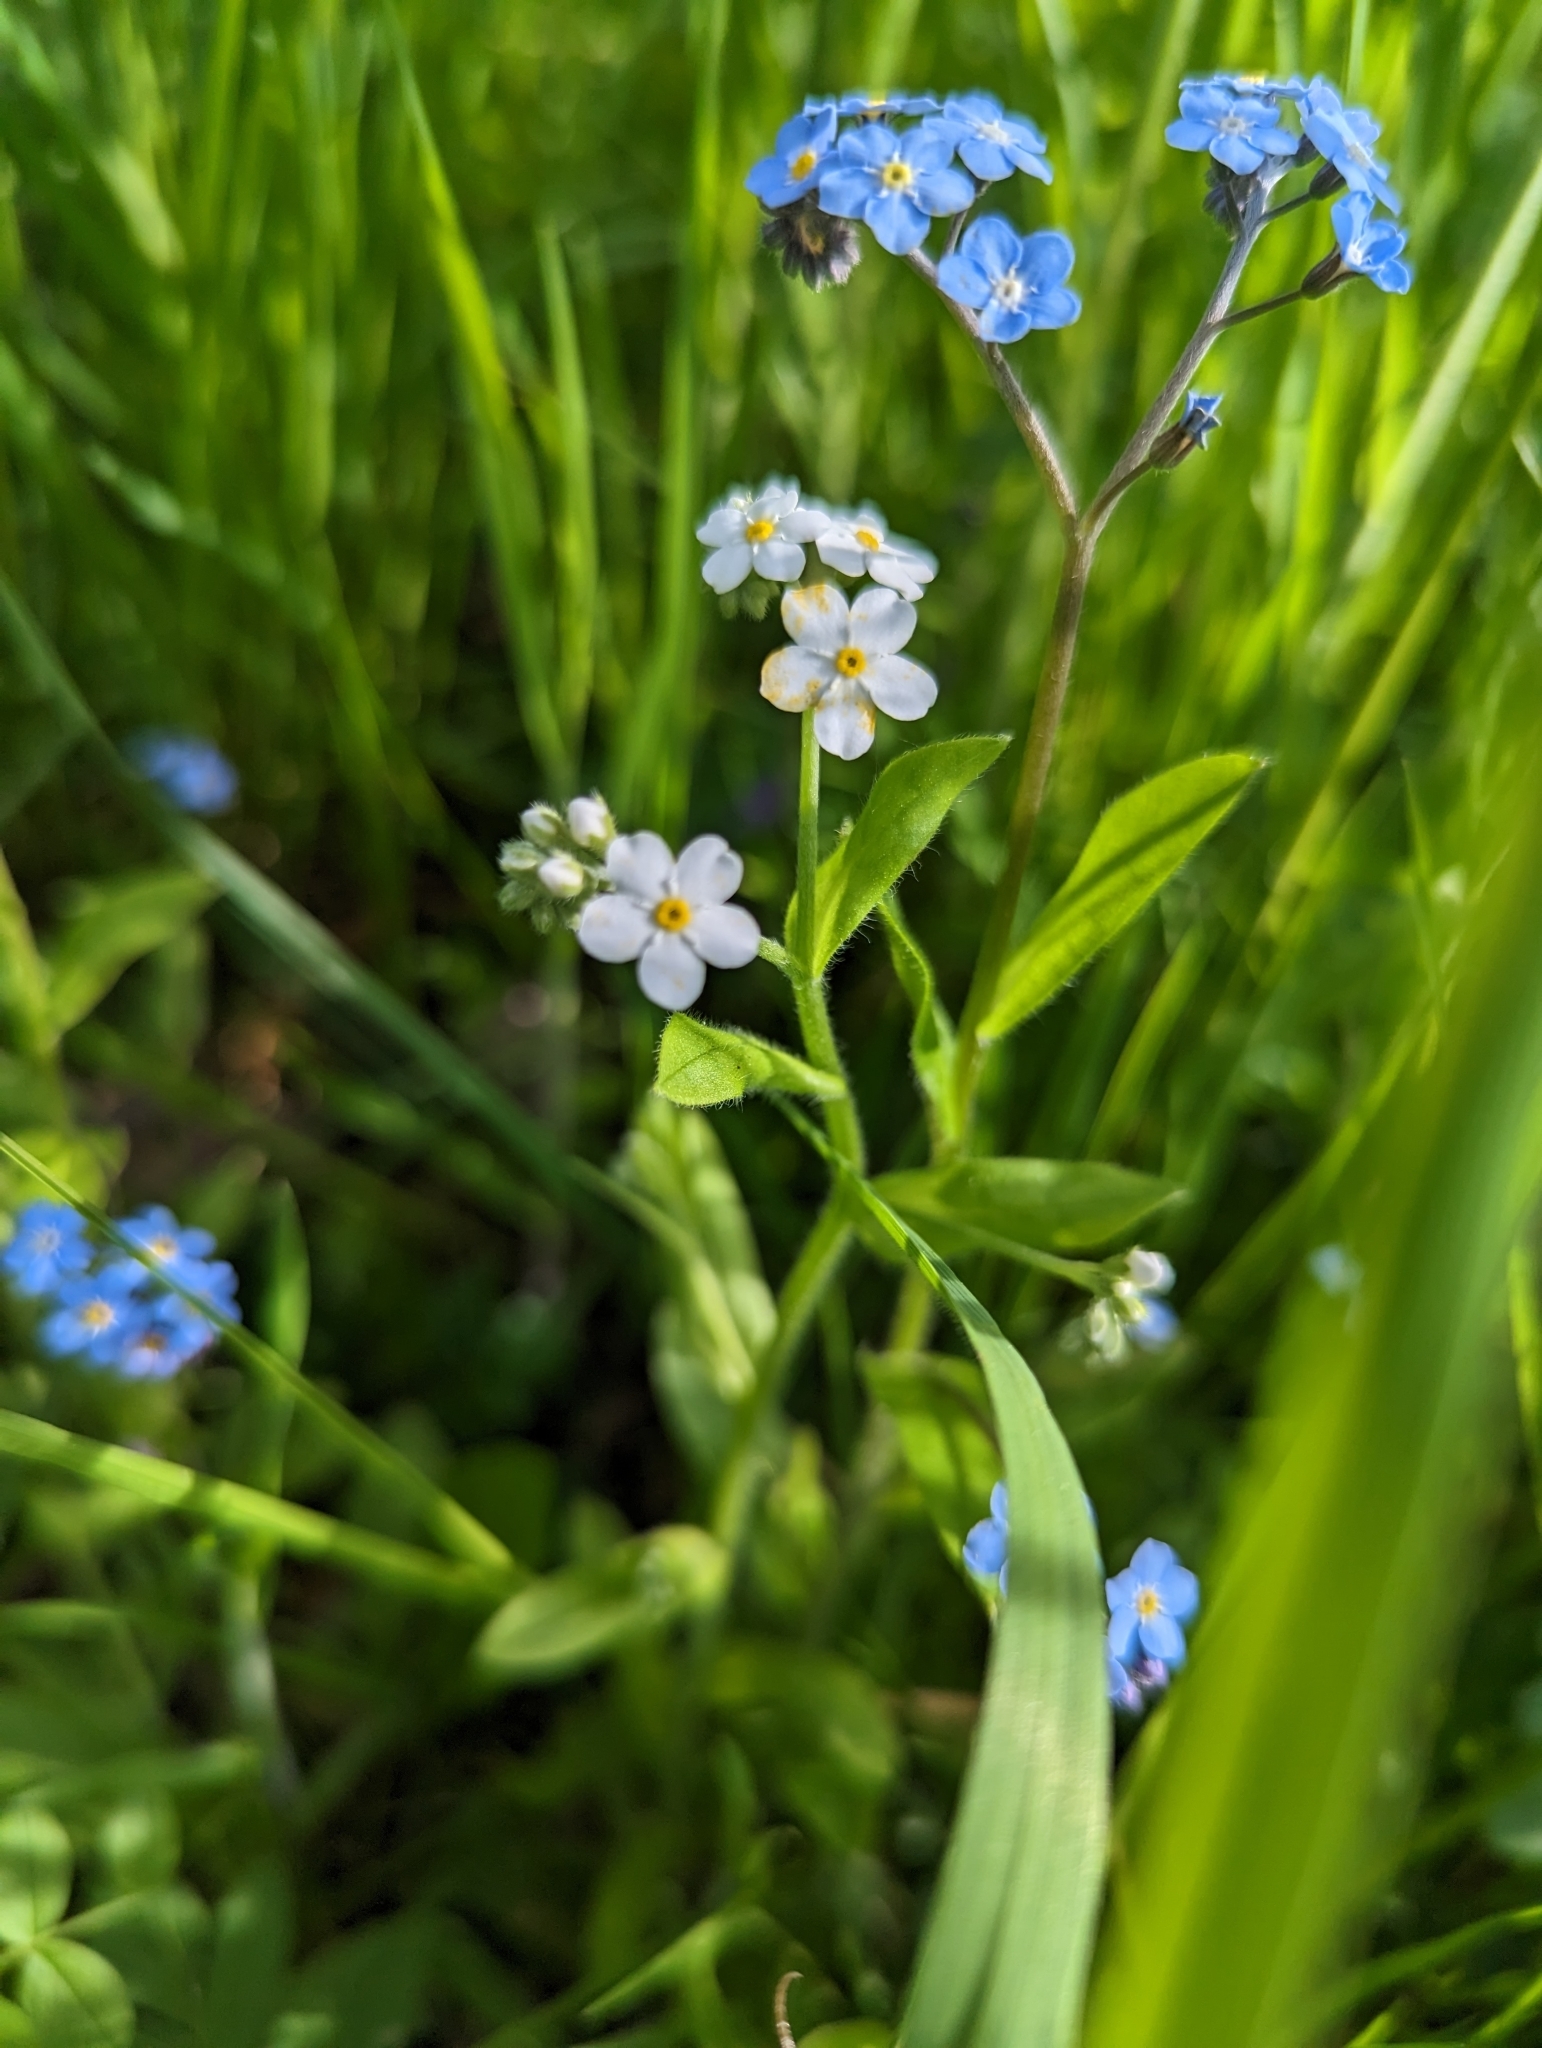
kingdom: Plantae
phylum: Tracheophyta
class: Magnoliopsida
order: Boraginales
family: Boraginaceae
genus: Myosotis
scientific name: Myosotis sylvatica
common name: Wood forget-me-not
